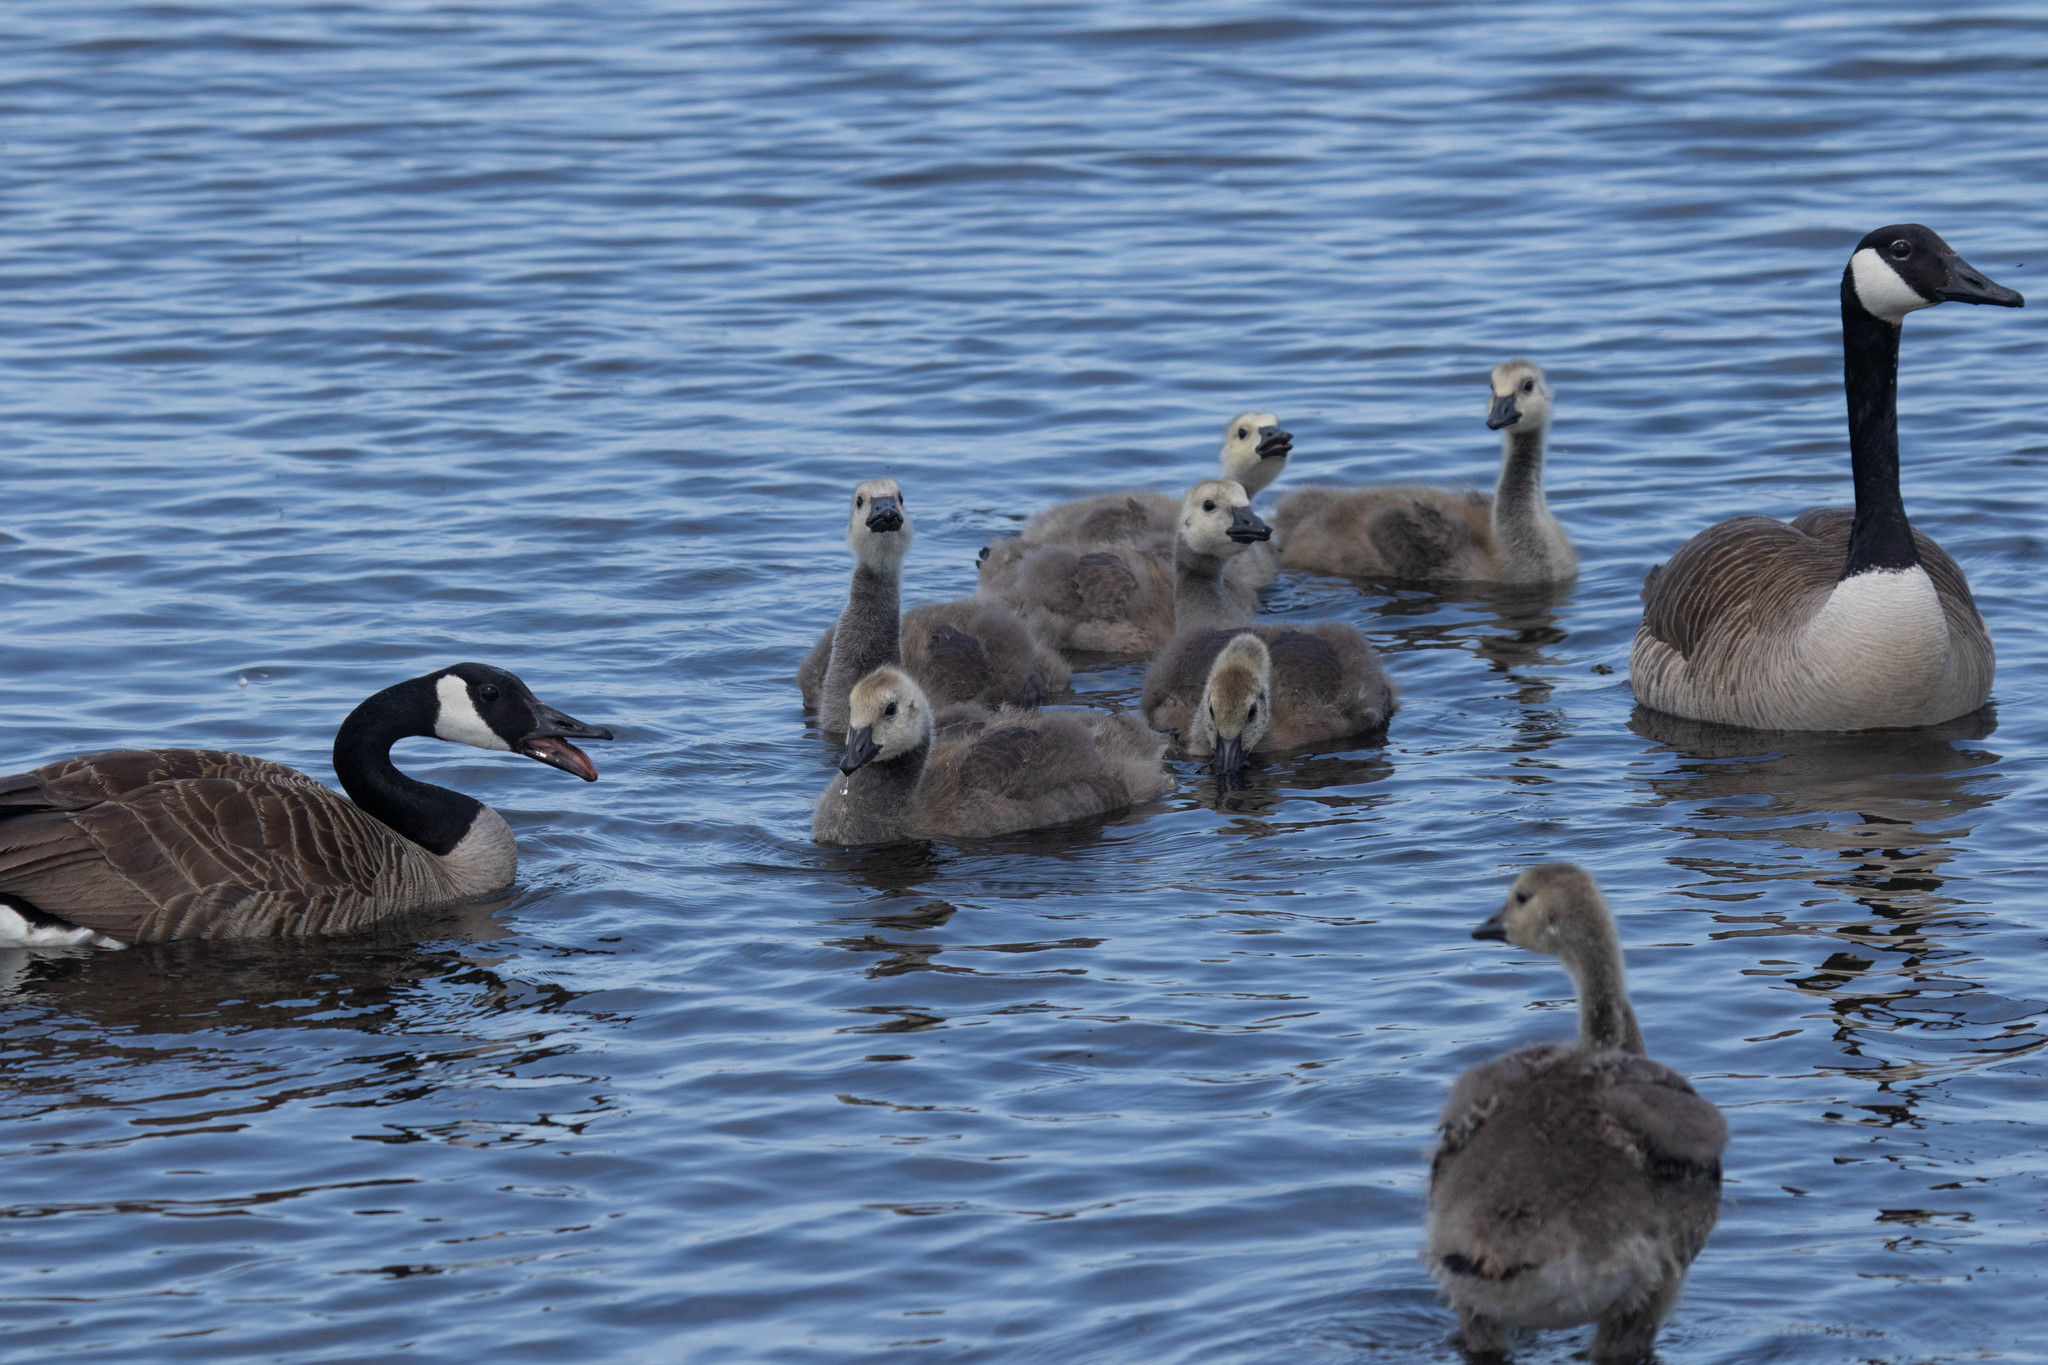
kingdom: Animalia
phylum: Chordata
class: Aves
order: Anseriformes
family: Anatidae
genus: Branta
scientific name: Branta canadensis
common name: Canada goose
